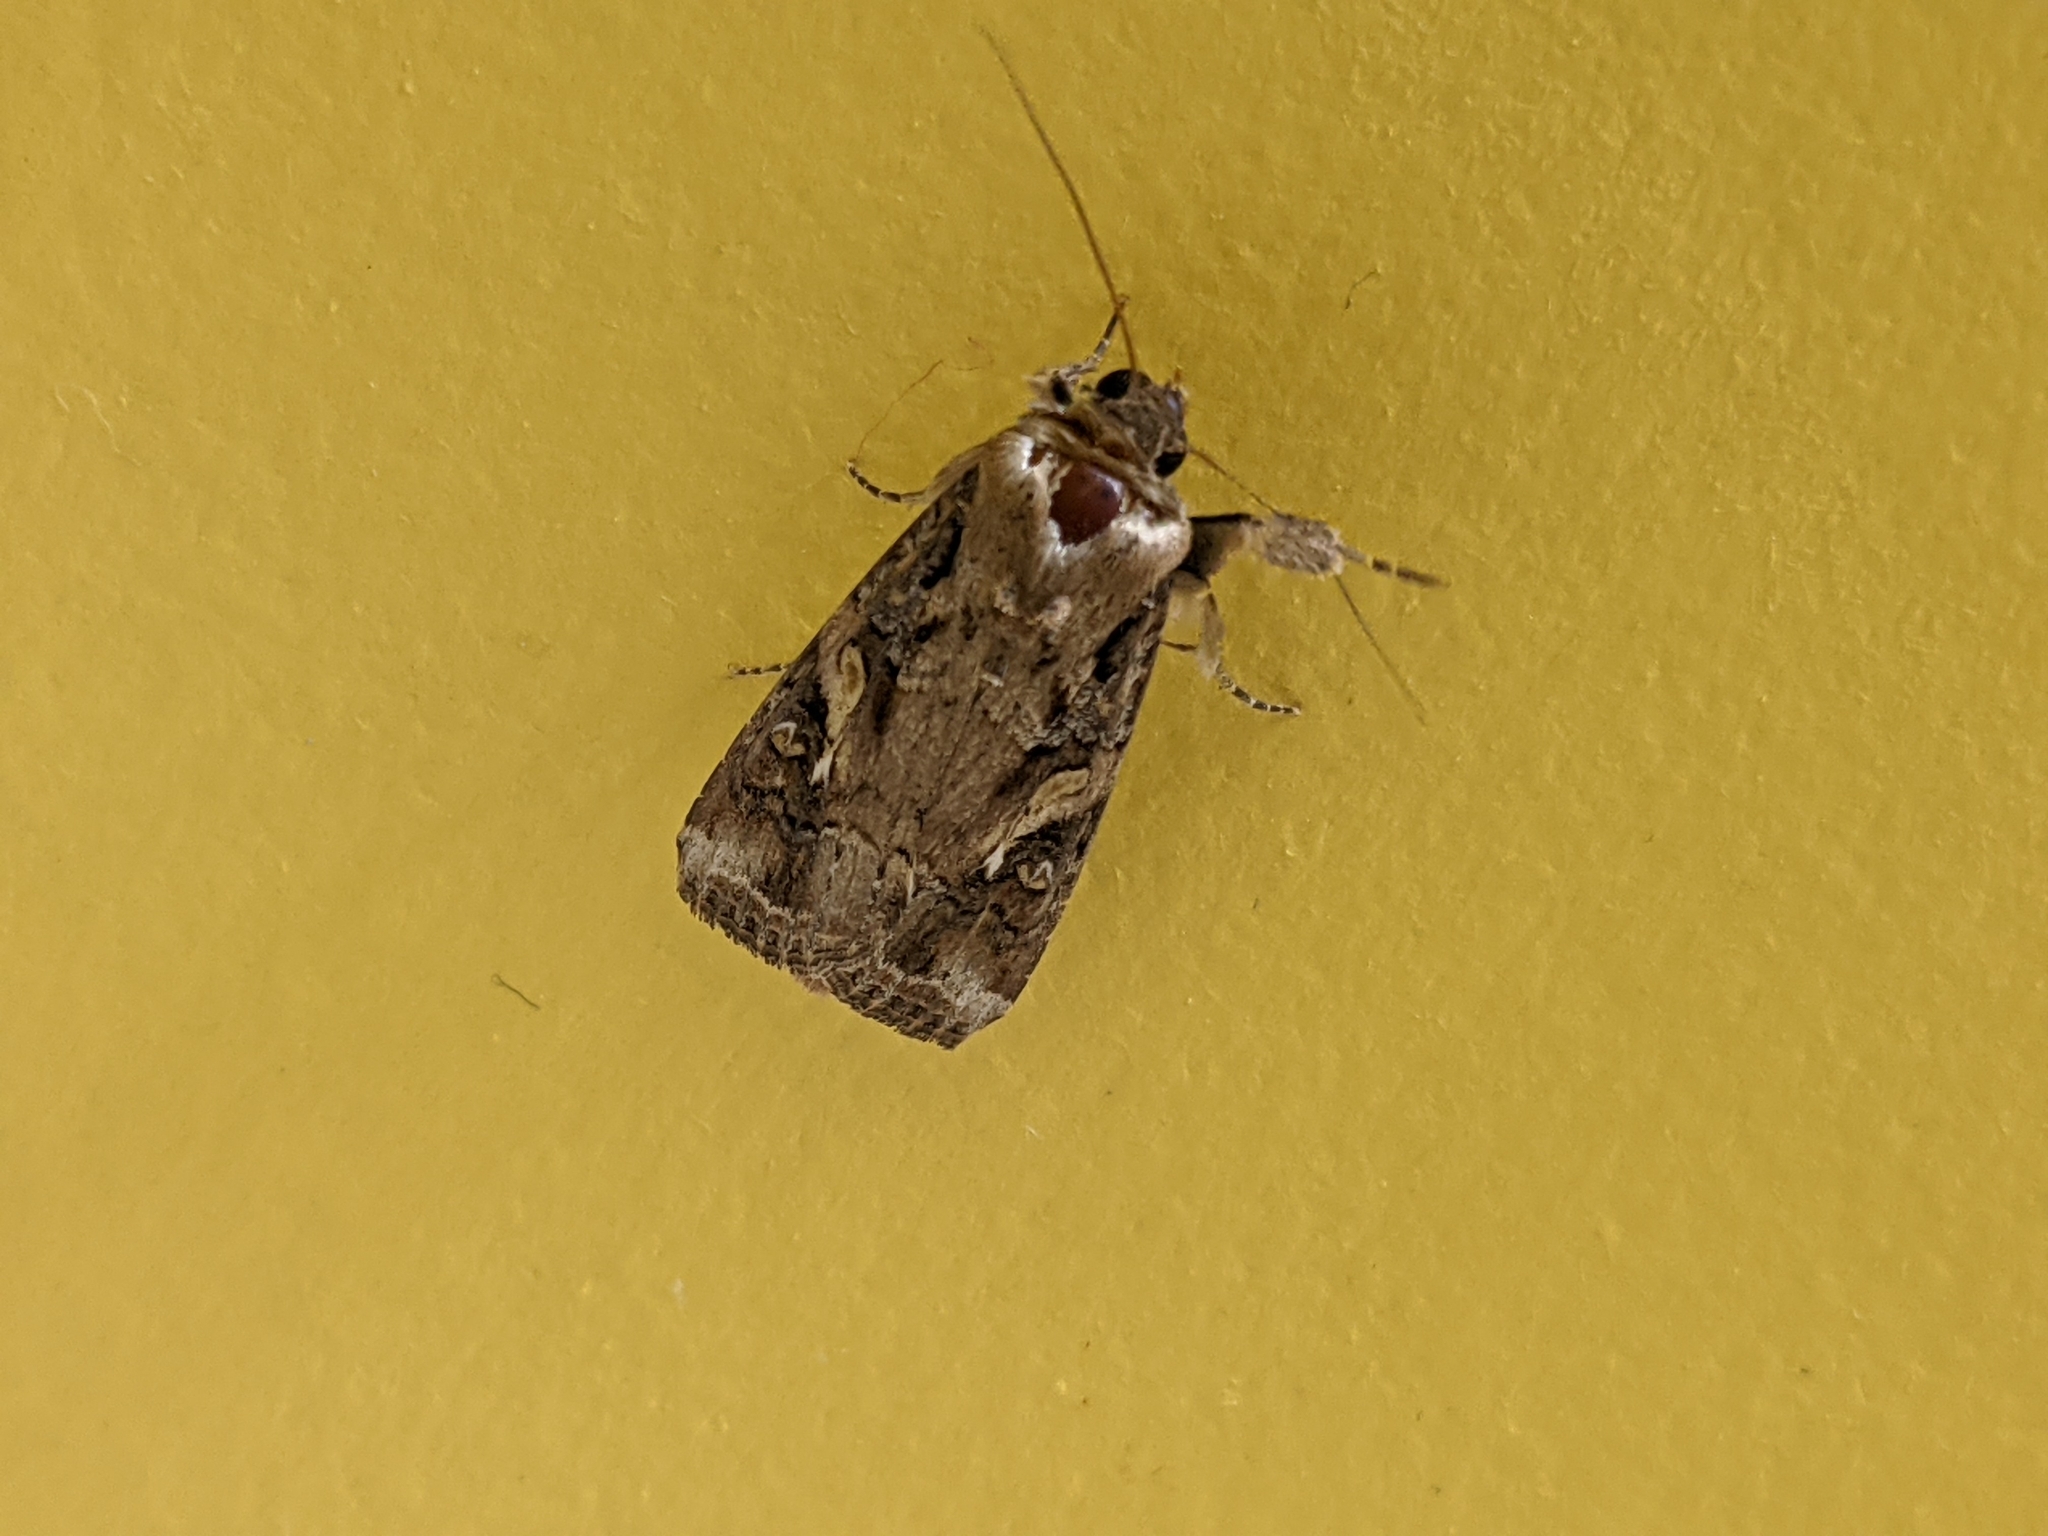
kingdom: Animalia
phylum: Arthropoda
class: Insecta
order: Lepidoptera
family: Noctuidae
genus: Spodoptera
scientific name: Spodoptera frugiperda
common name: Fall armyworm
